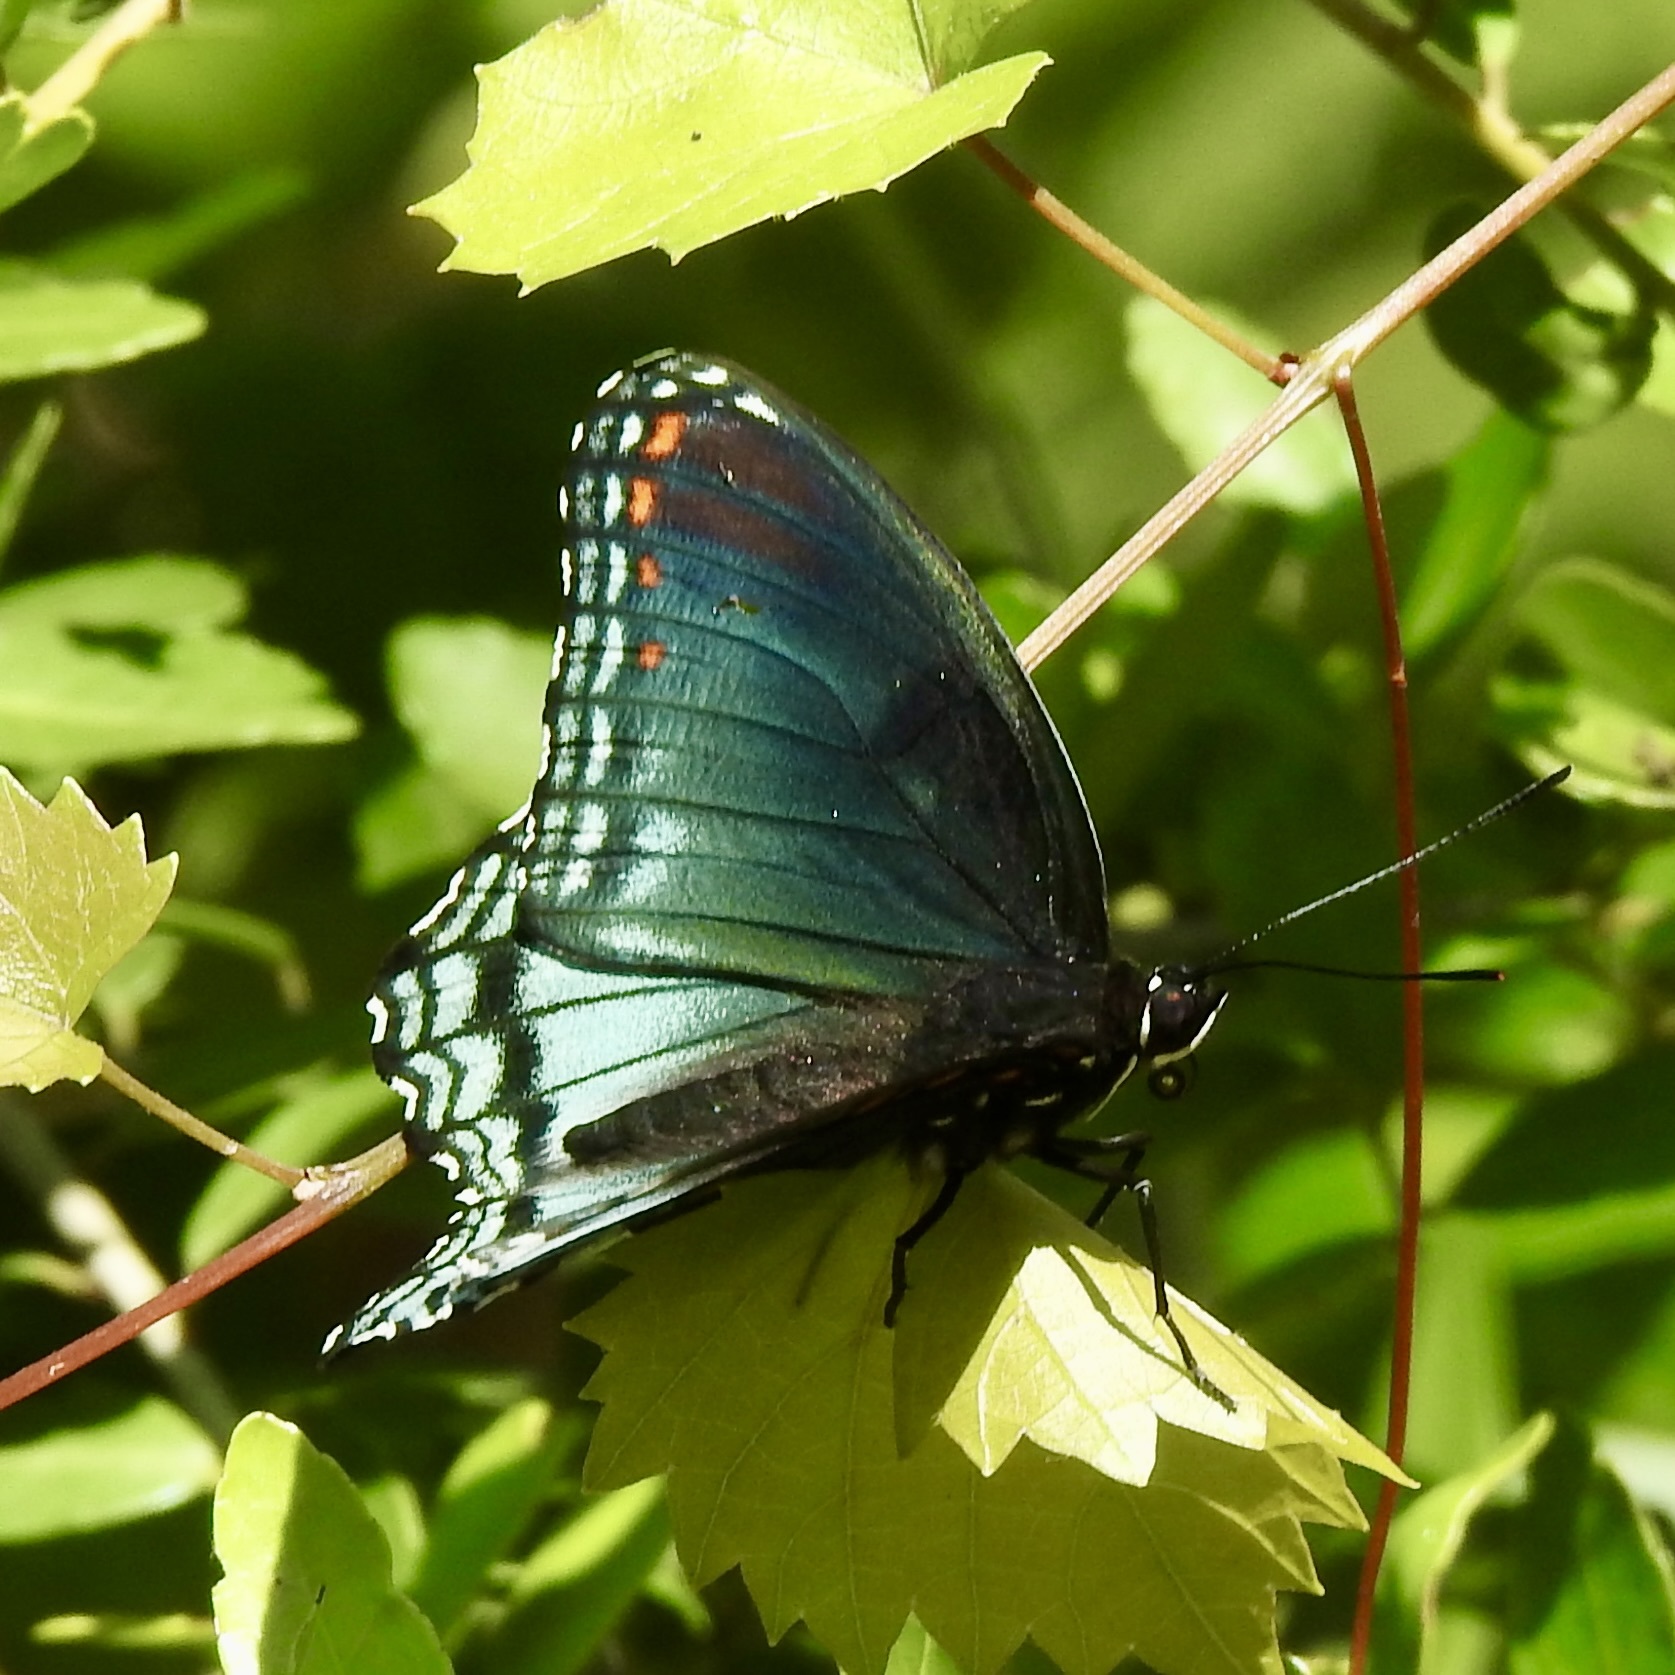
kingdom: Animalia
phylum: Arthropoda
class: Insecta
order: Lepidoptera
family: Nymphalidae
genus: Limenitis
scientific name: Limenitis astyanax
